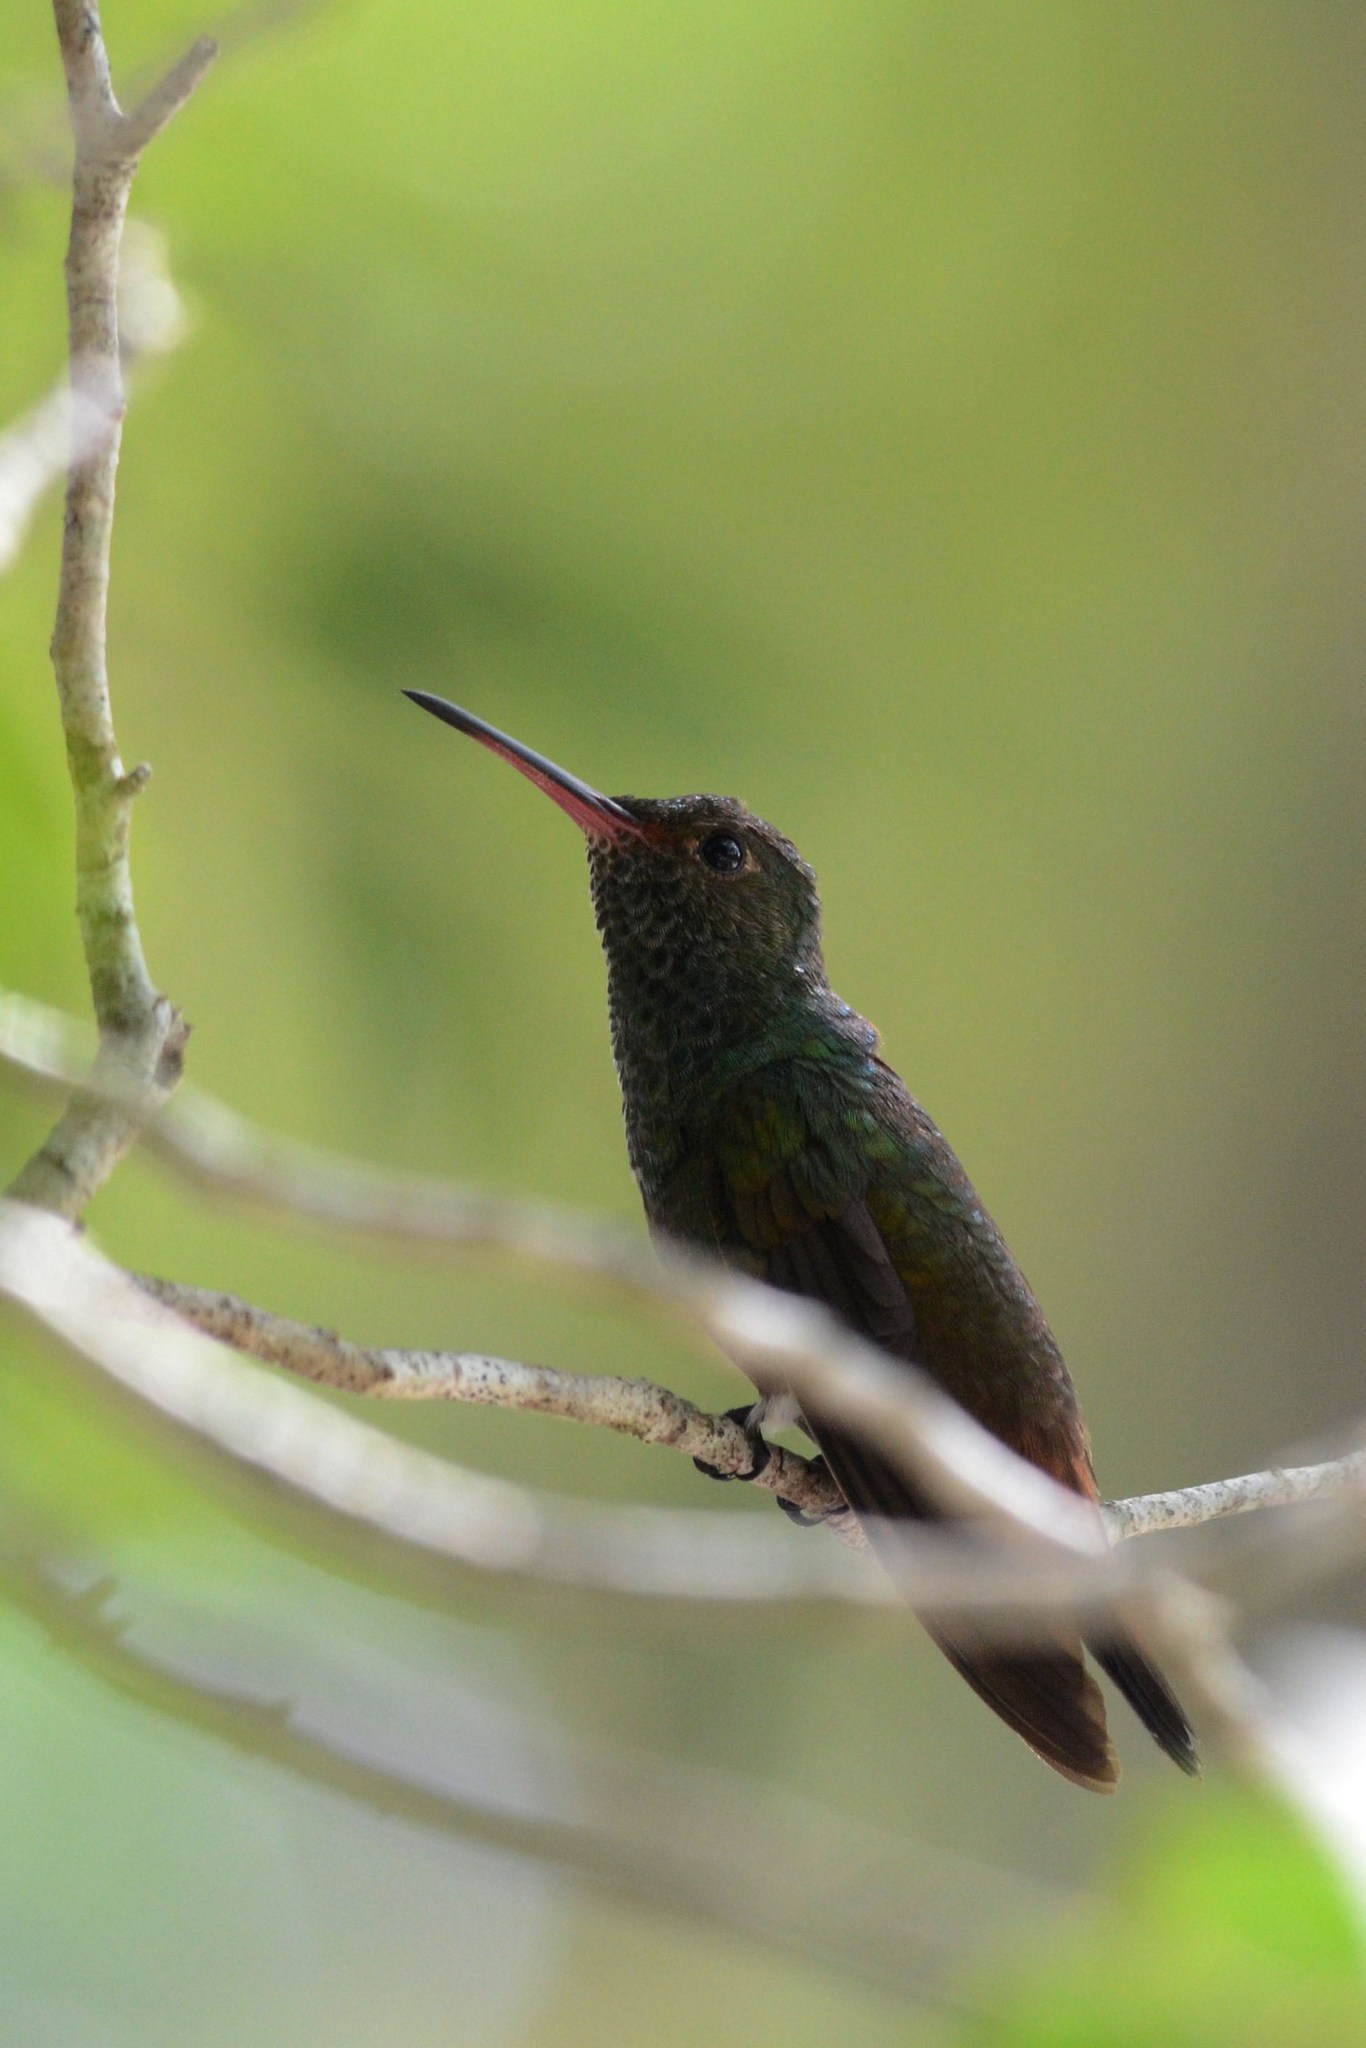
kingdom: Animalia
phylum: Chordata
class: Aves
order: Apodiformes
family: Trochilidae
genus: Amazilia
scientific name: Amazilia tzacatl
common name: Rufous-tailed hummingbird
